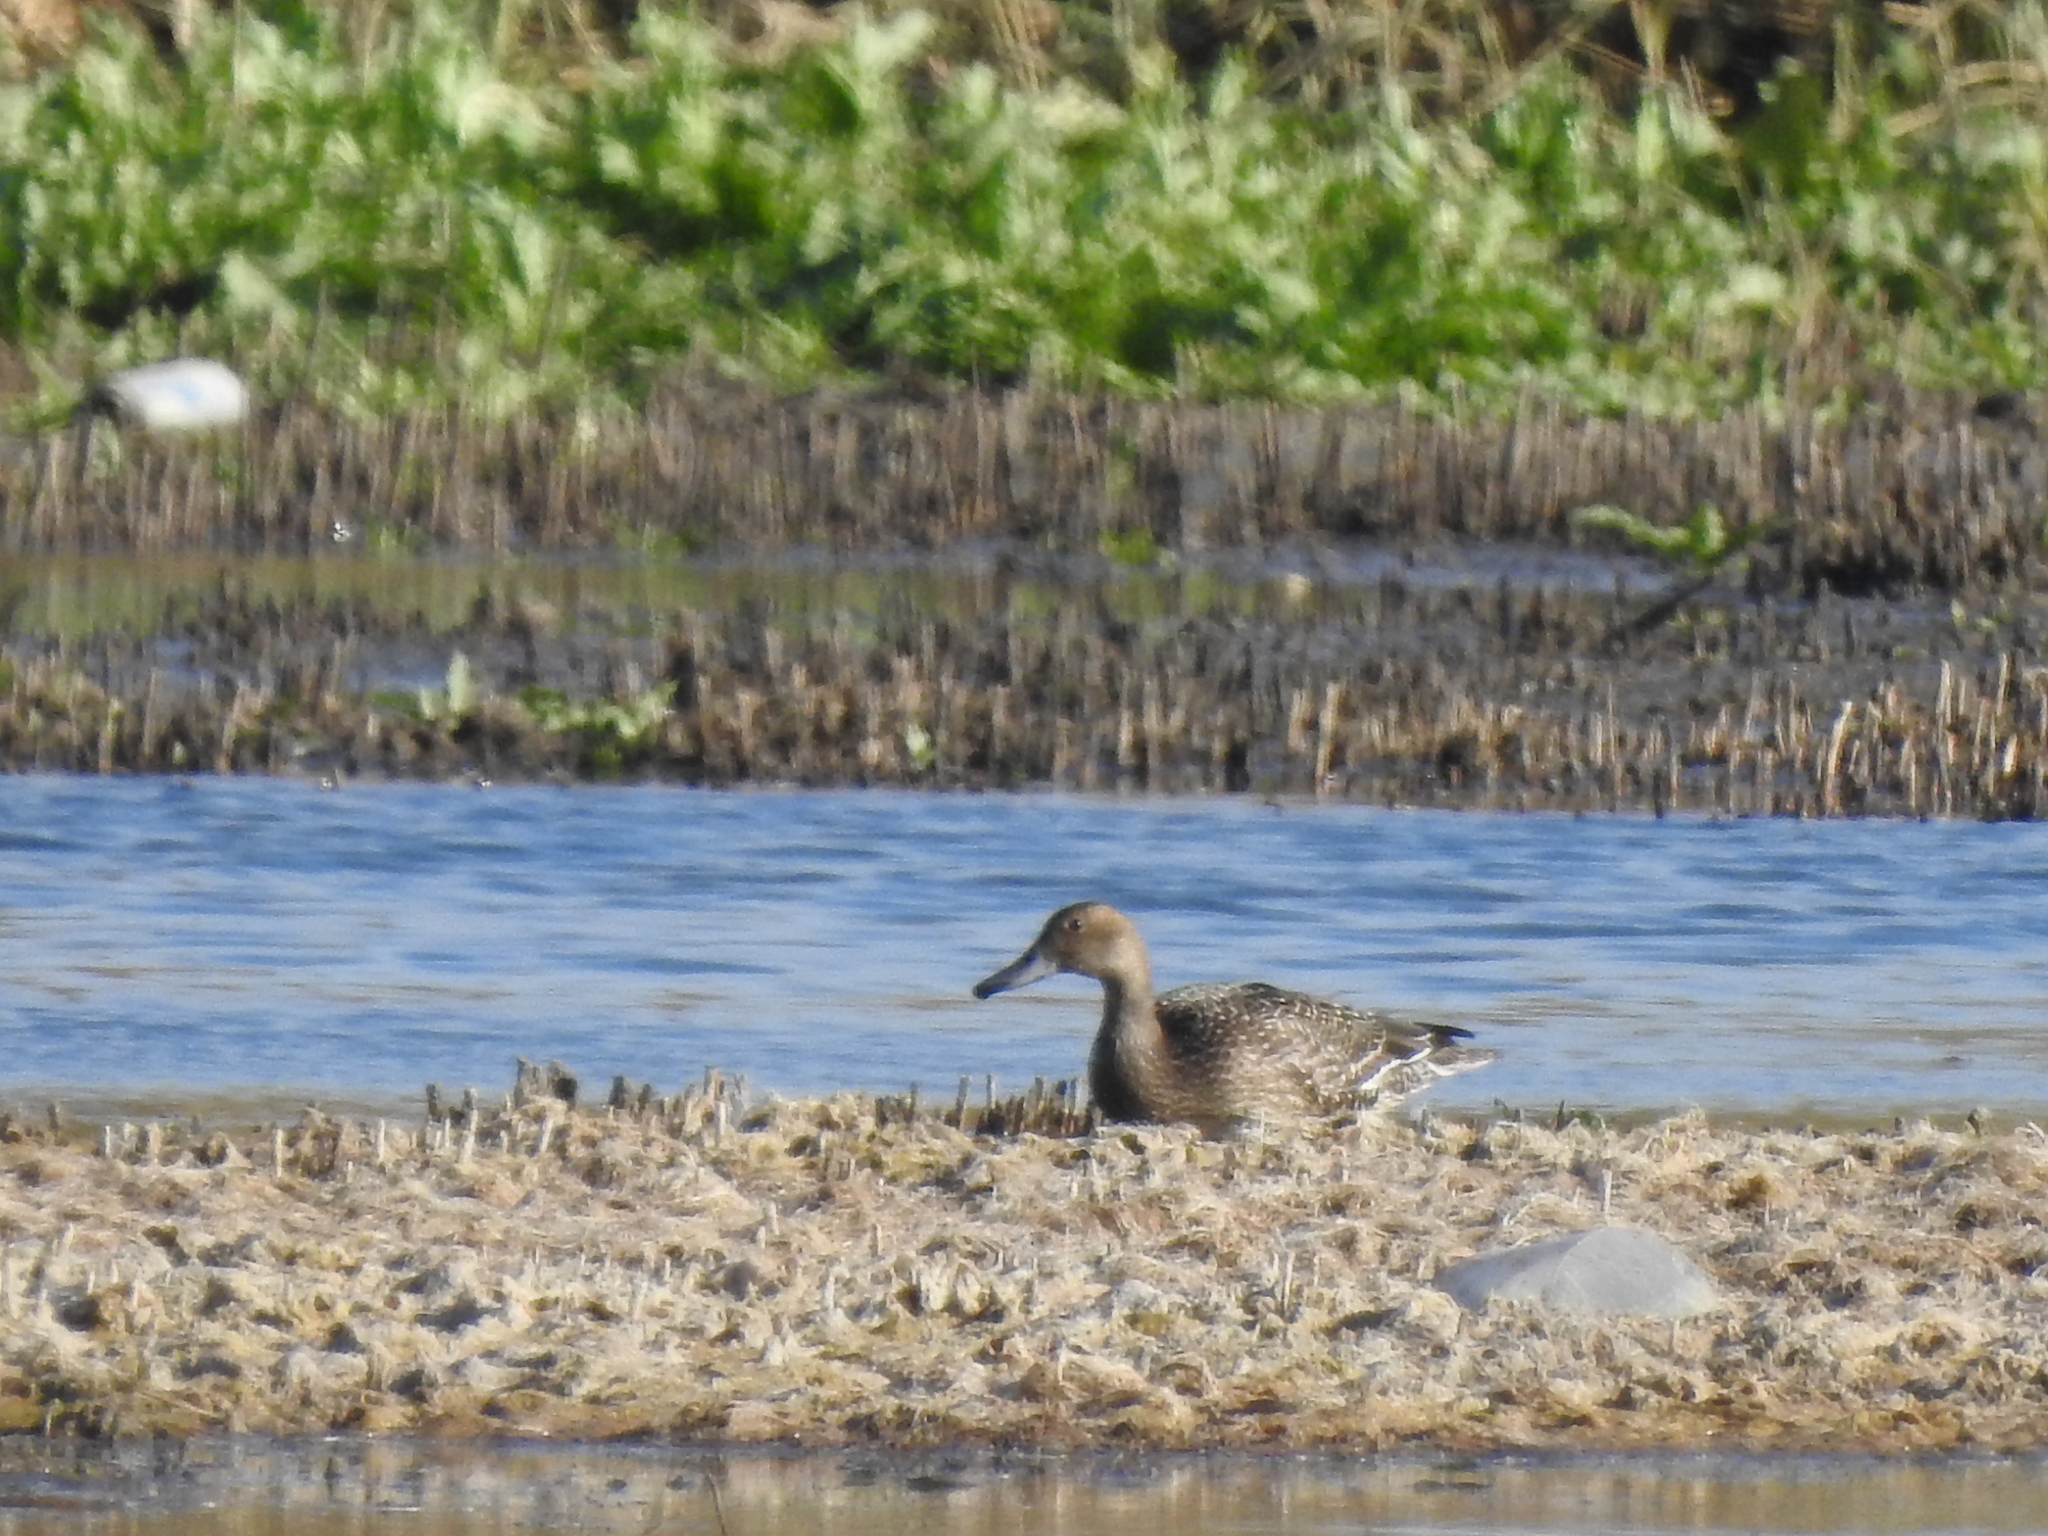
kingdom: Animalia
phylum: Chordata
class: Aves
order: Anseriformes
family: Anatidae
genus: Anas
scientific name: Anas acuta
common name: Northern pintail
